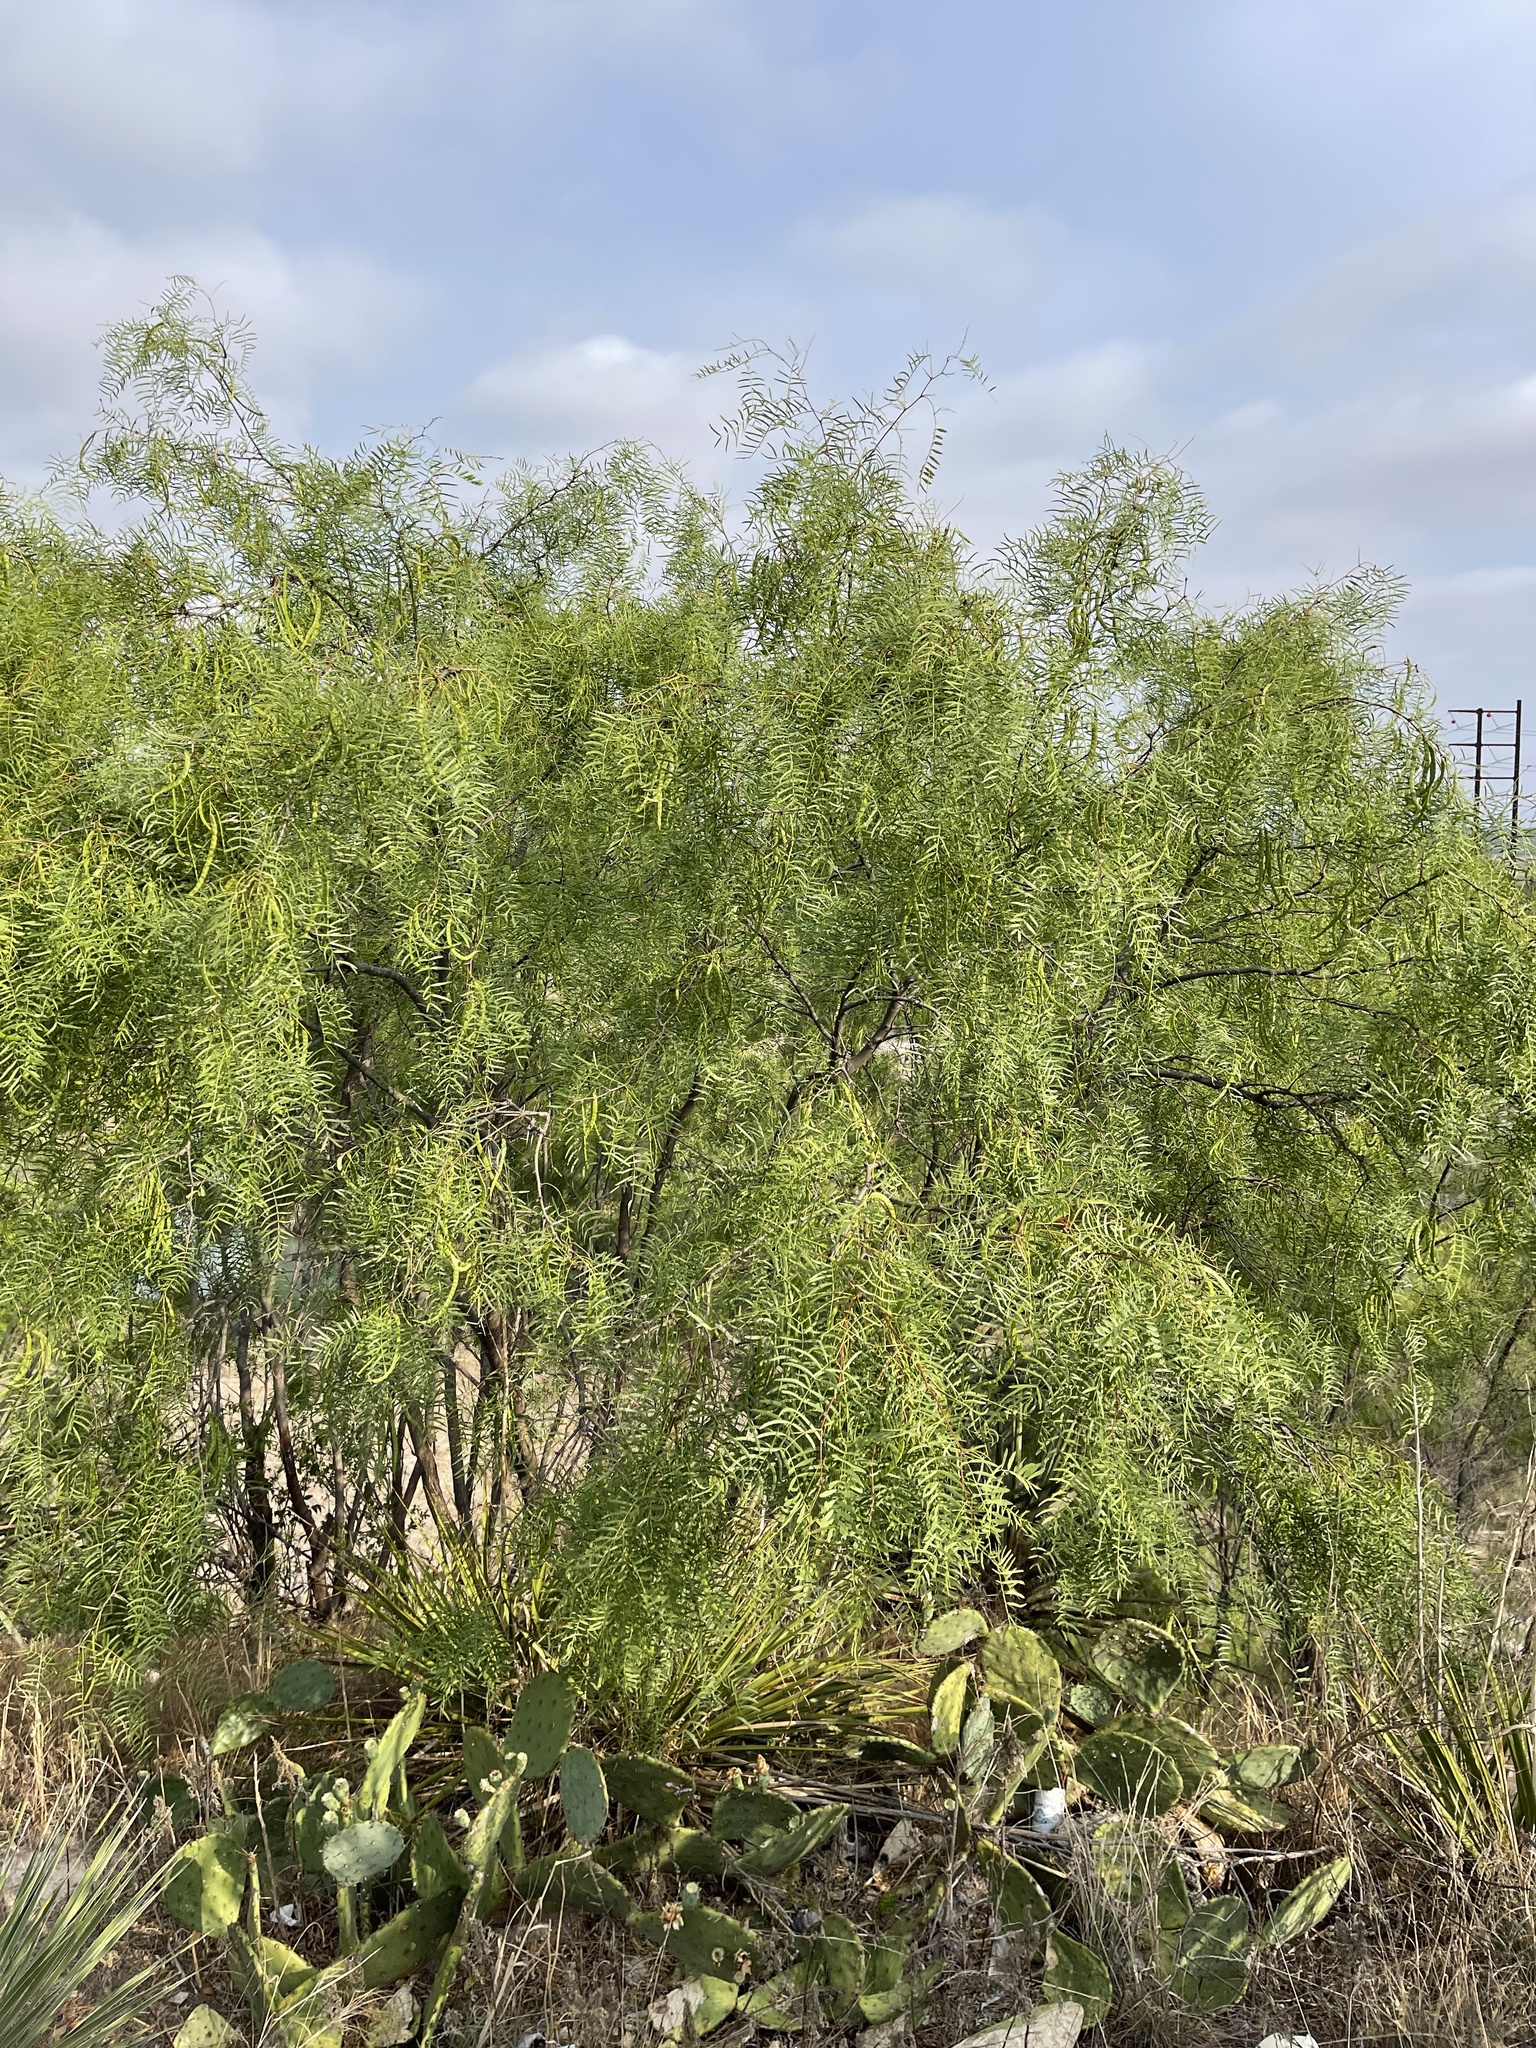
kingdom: Plantae
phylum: Tracheophyta
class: Magnoliopsida
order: Fabales
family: Fabaceae
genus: Prosopis
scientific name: Prosopis glandulosa
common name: Honey mesquite
